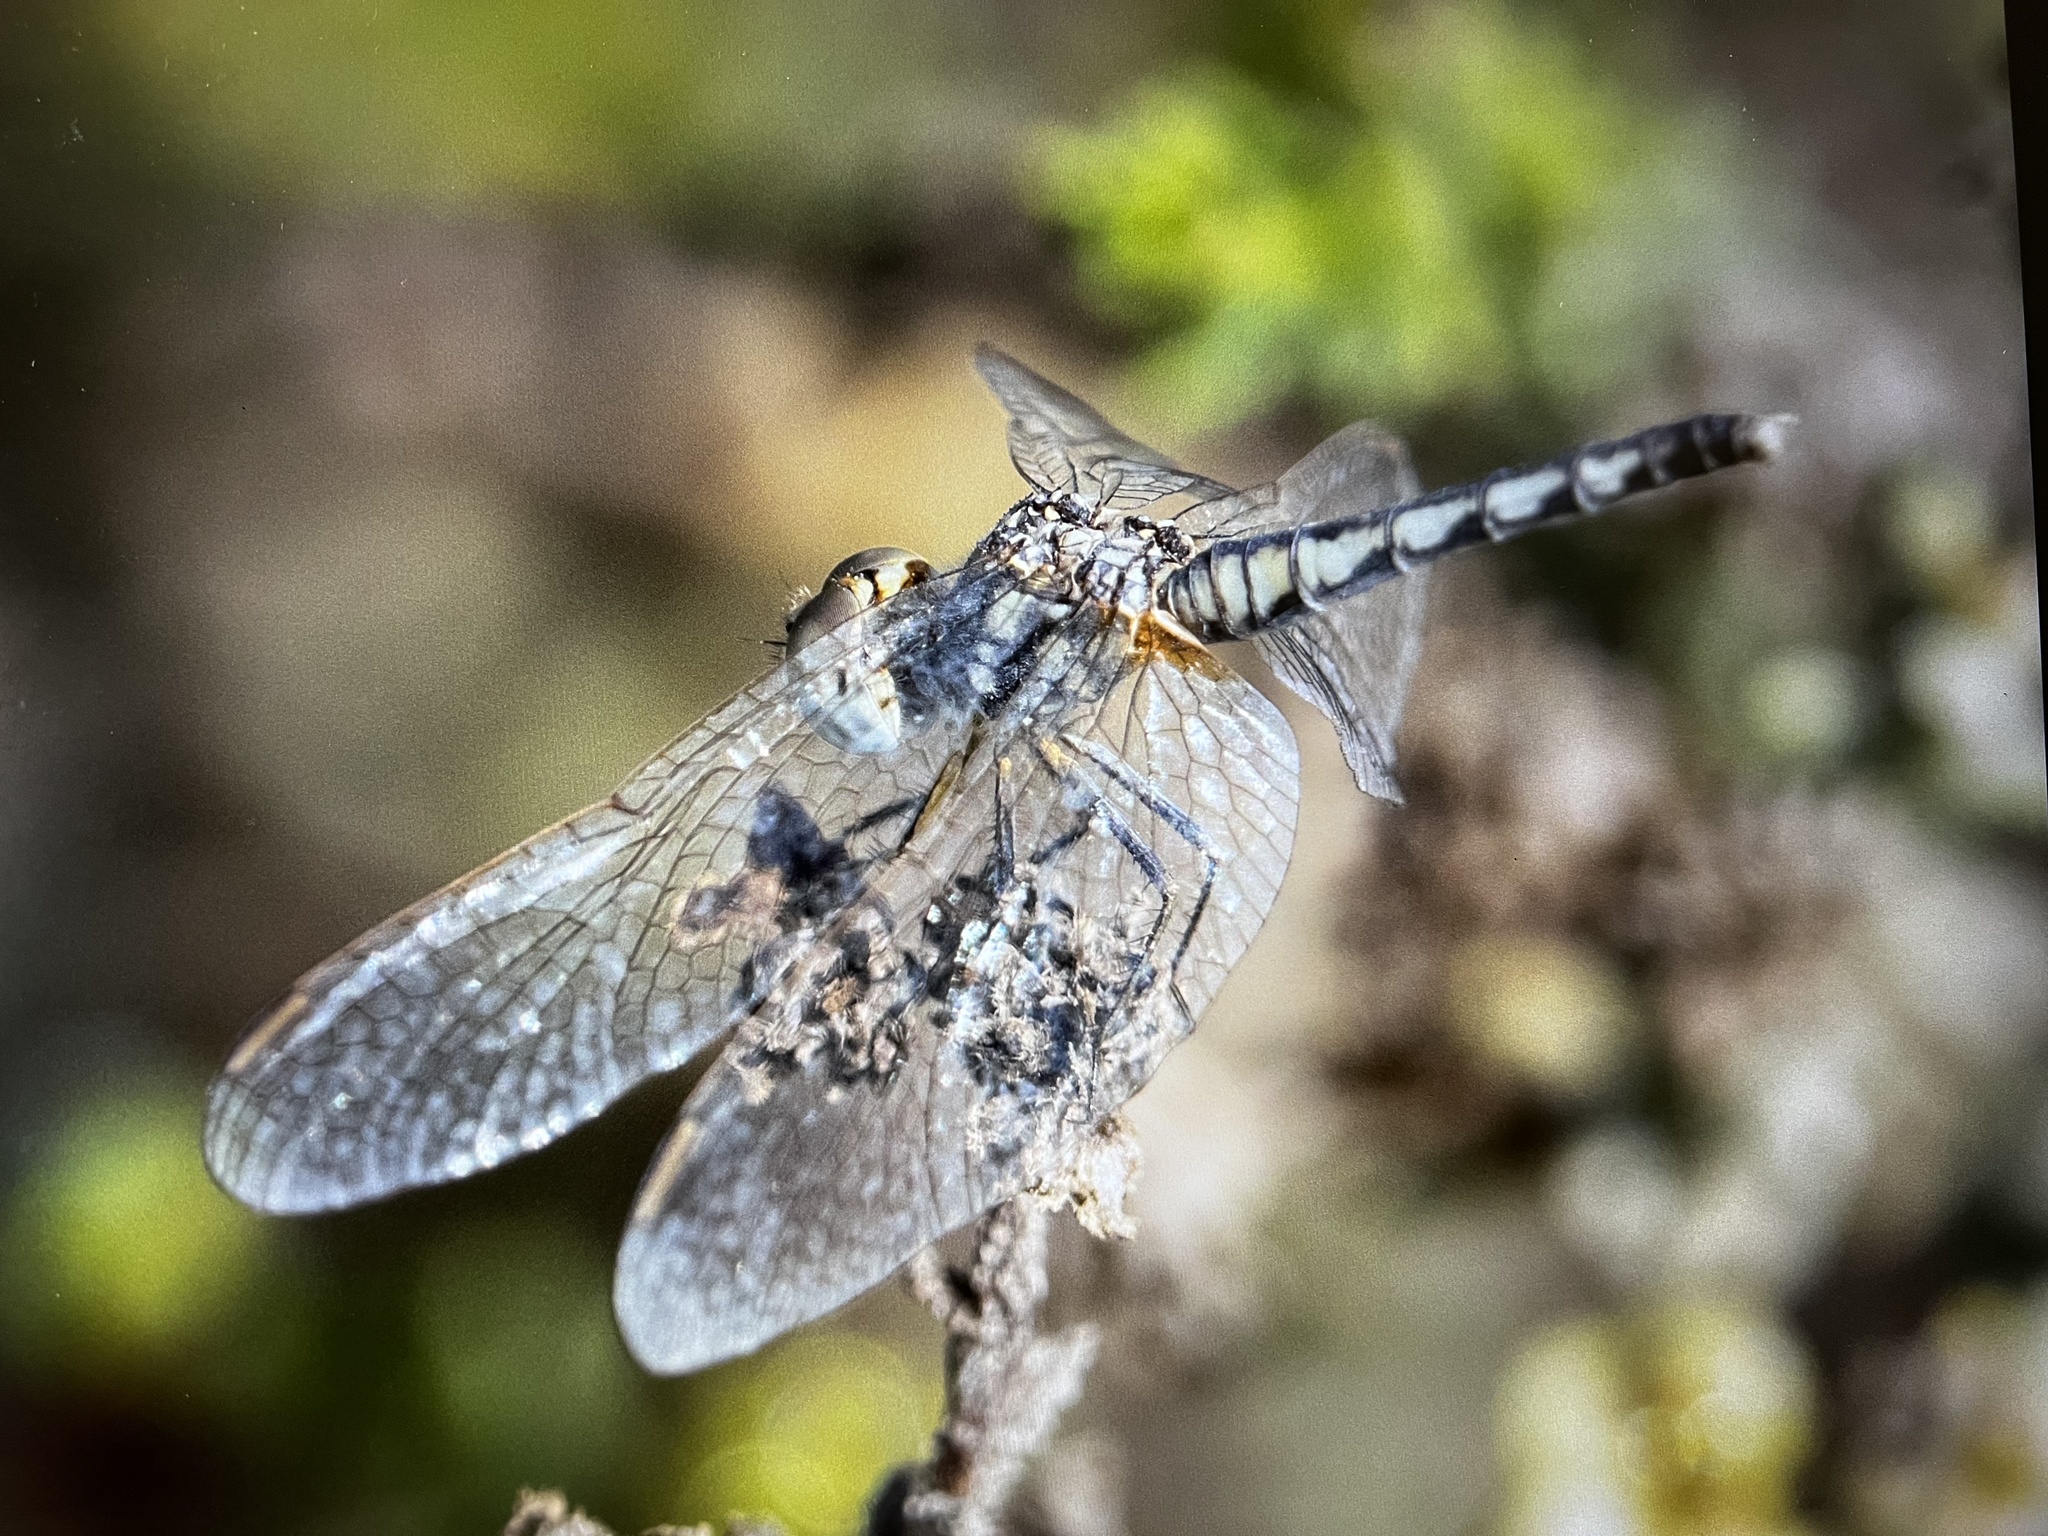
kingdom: Animalia
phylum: Arthropoda
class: Insecta
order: Odonata
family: Libellulidae
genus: Diplacodes
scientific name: Diplacodes lefebvrii
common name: Black percher
